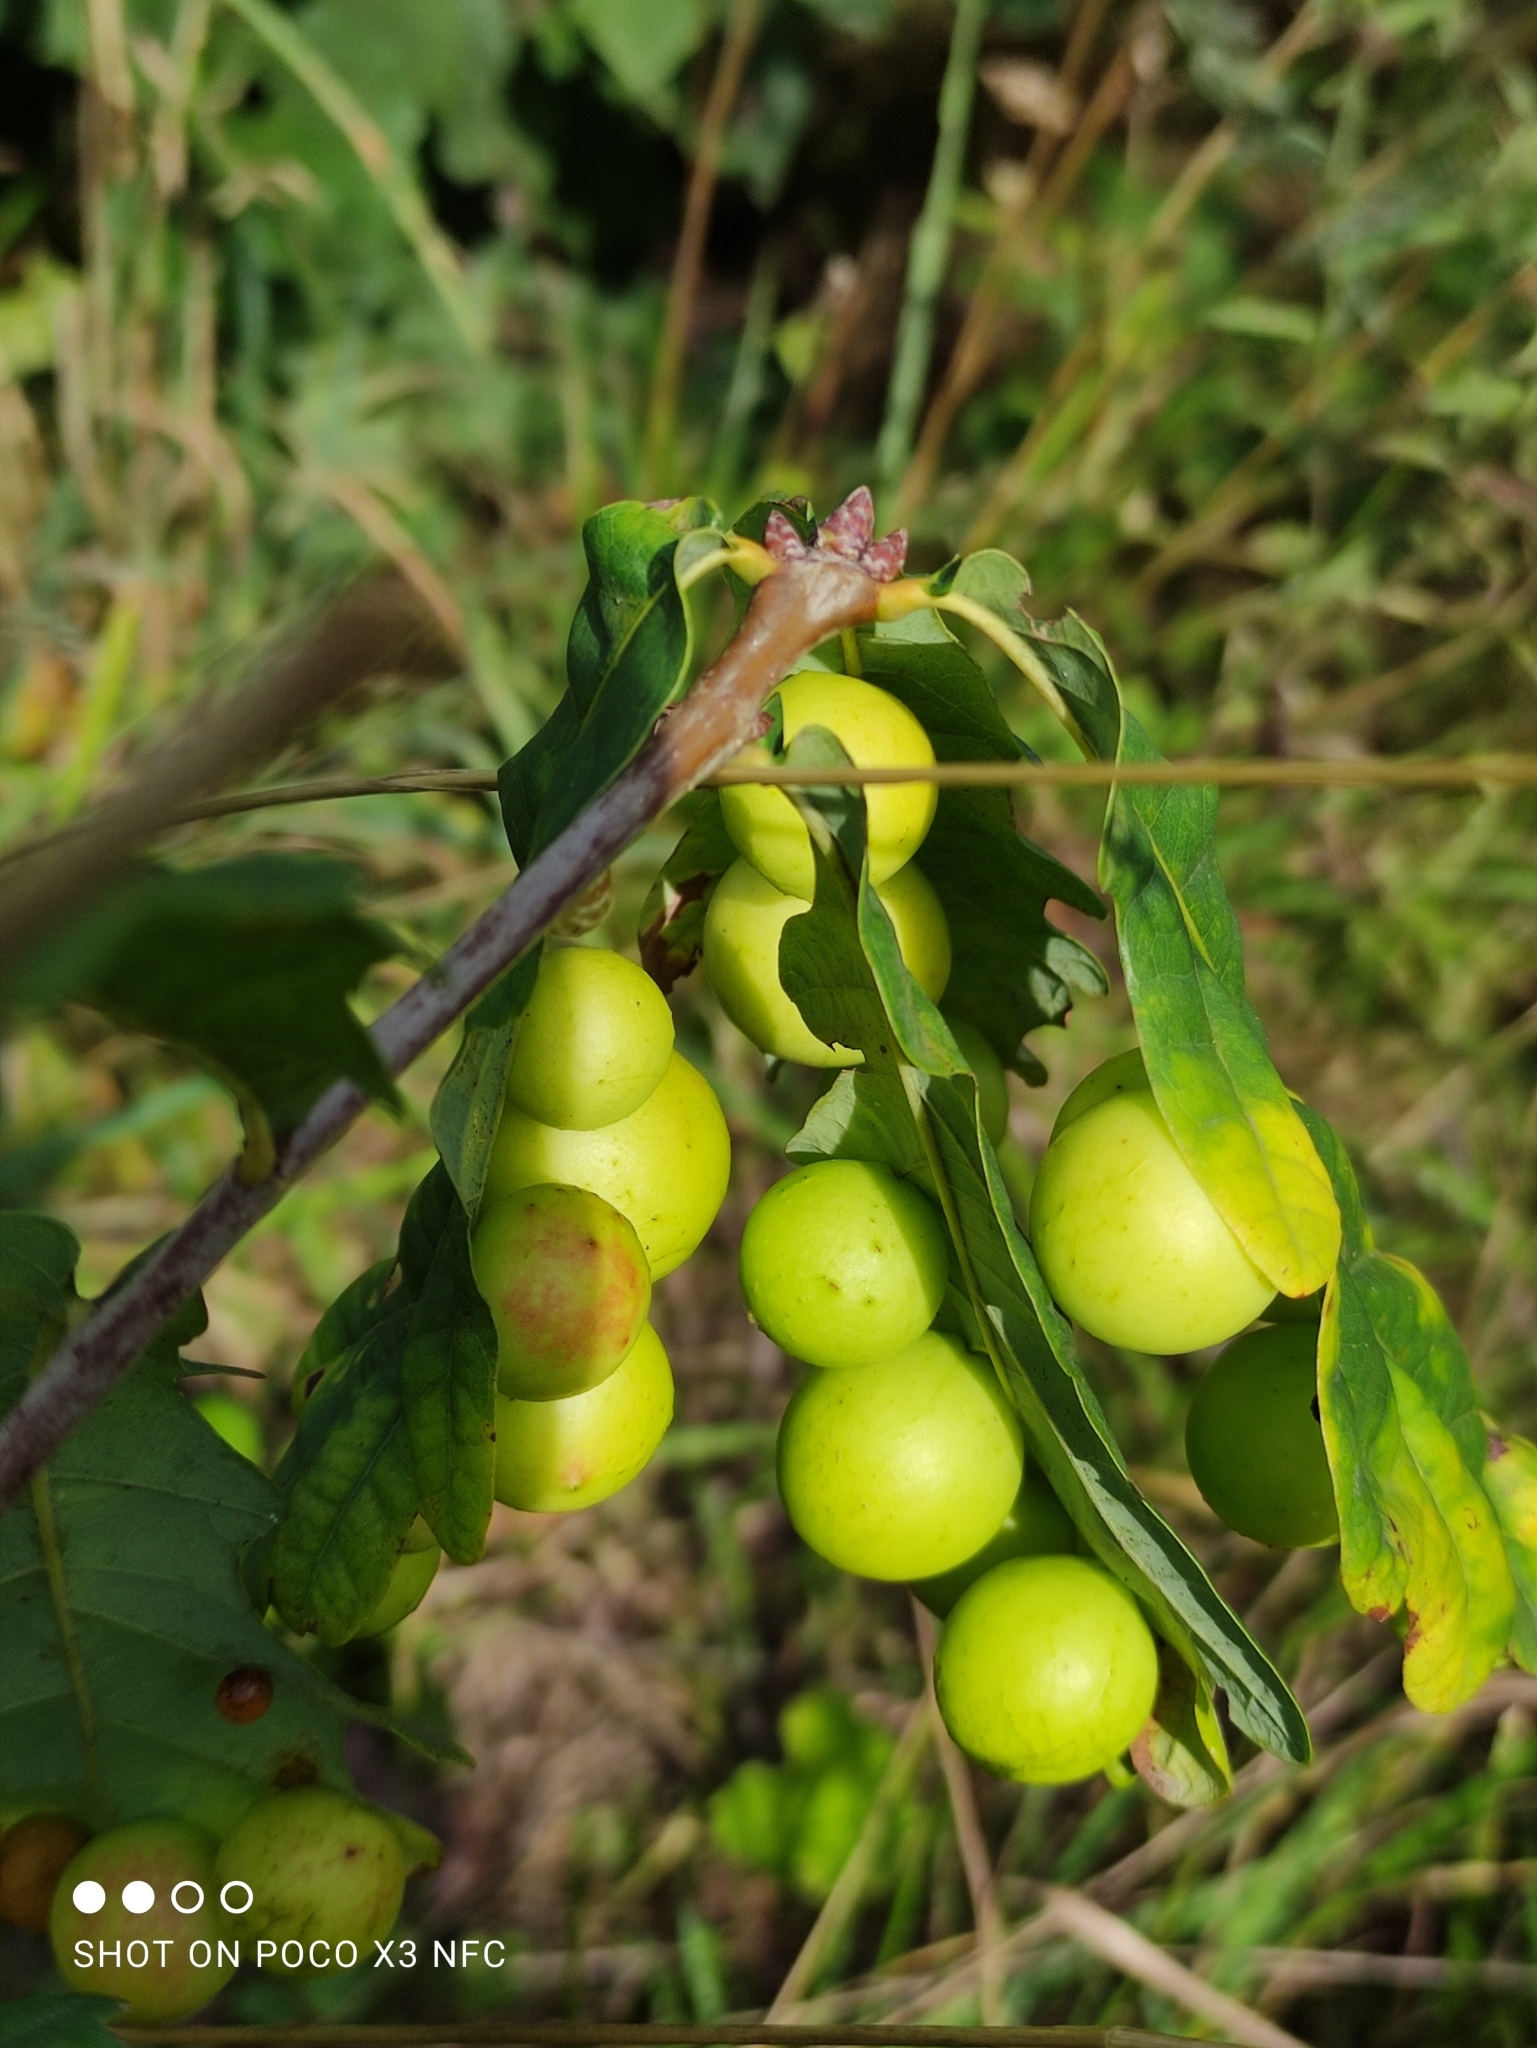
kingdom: Animalia
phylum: Arthropoda
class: Insecta
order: Hymenoptera
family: Cynipidae
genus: Cynips
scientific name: Cynips quercusfolii
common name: Cherry gall
